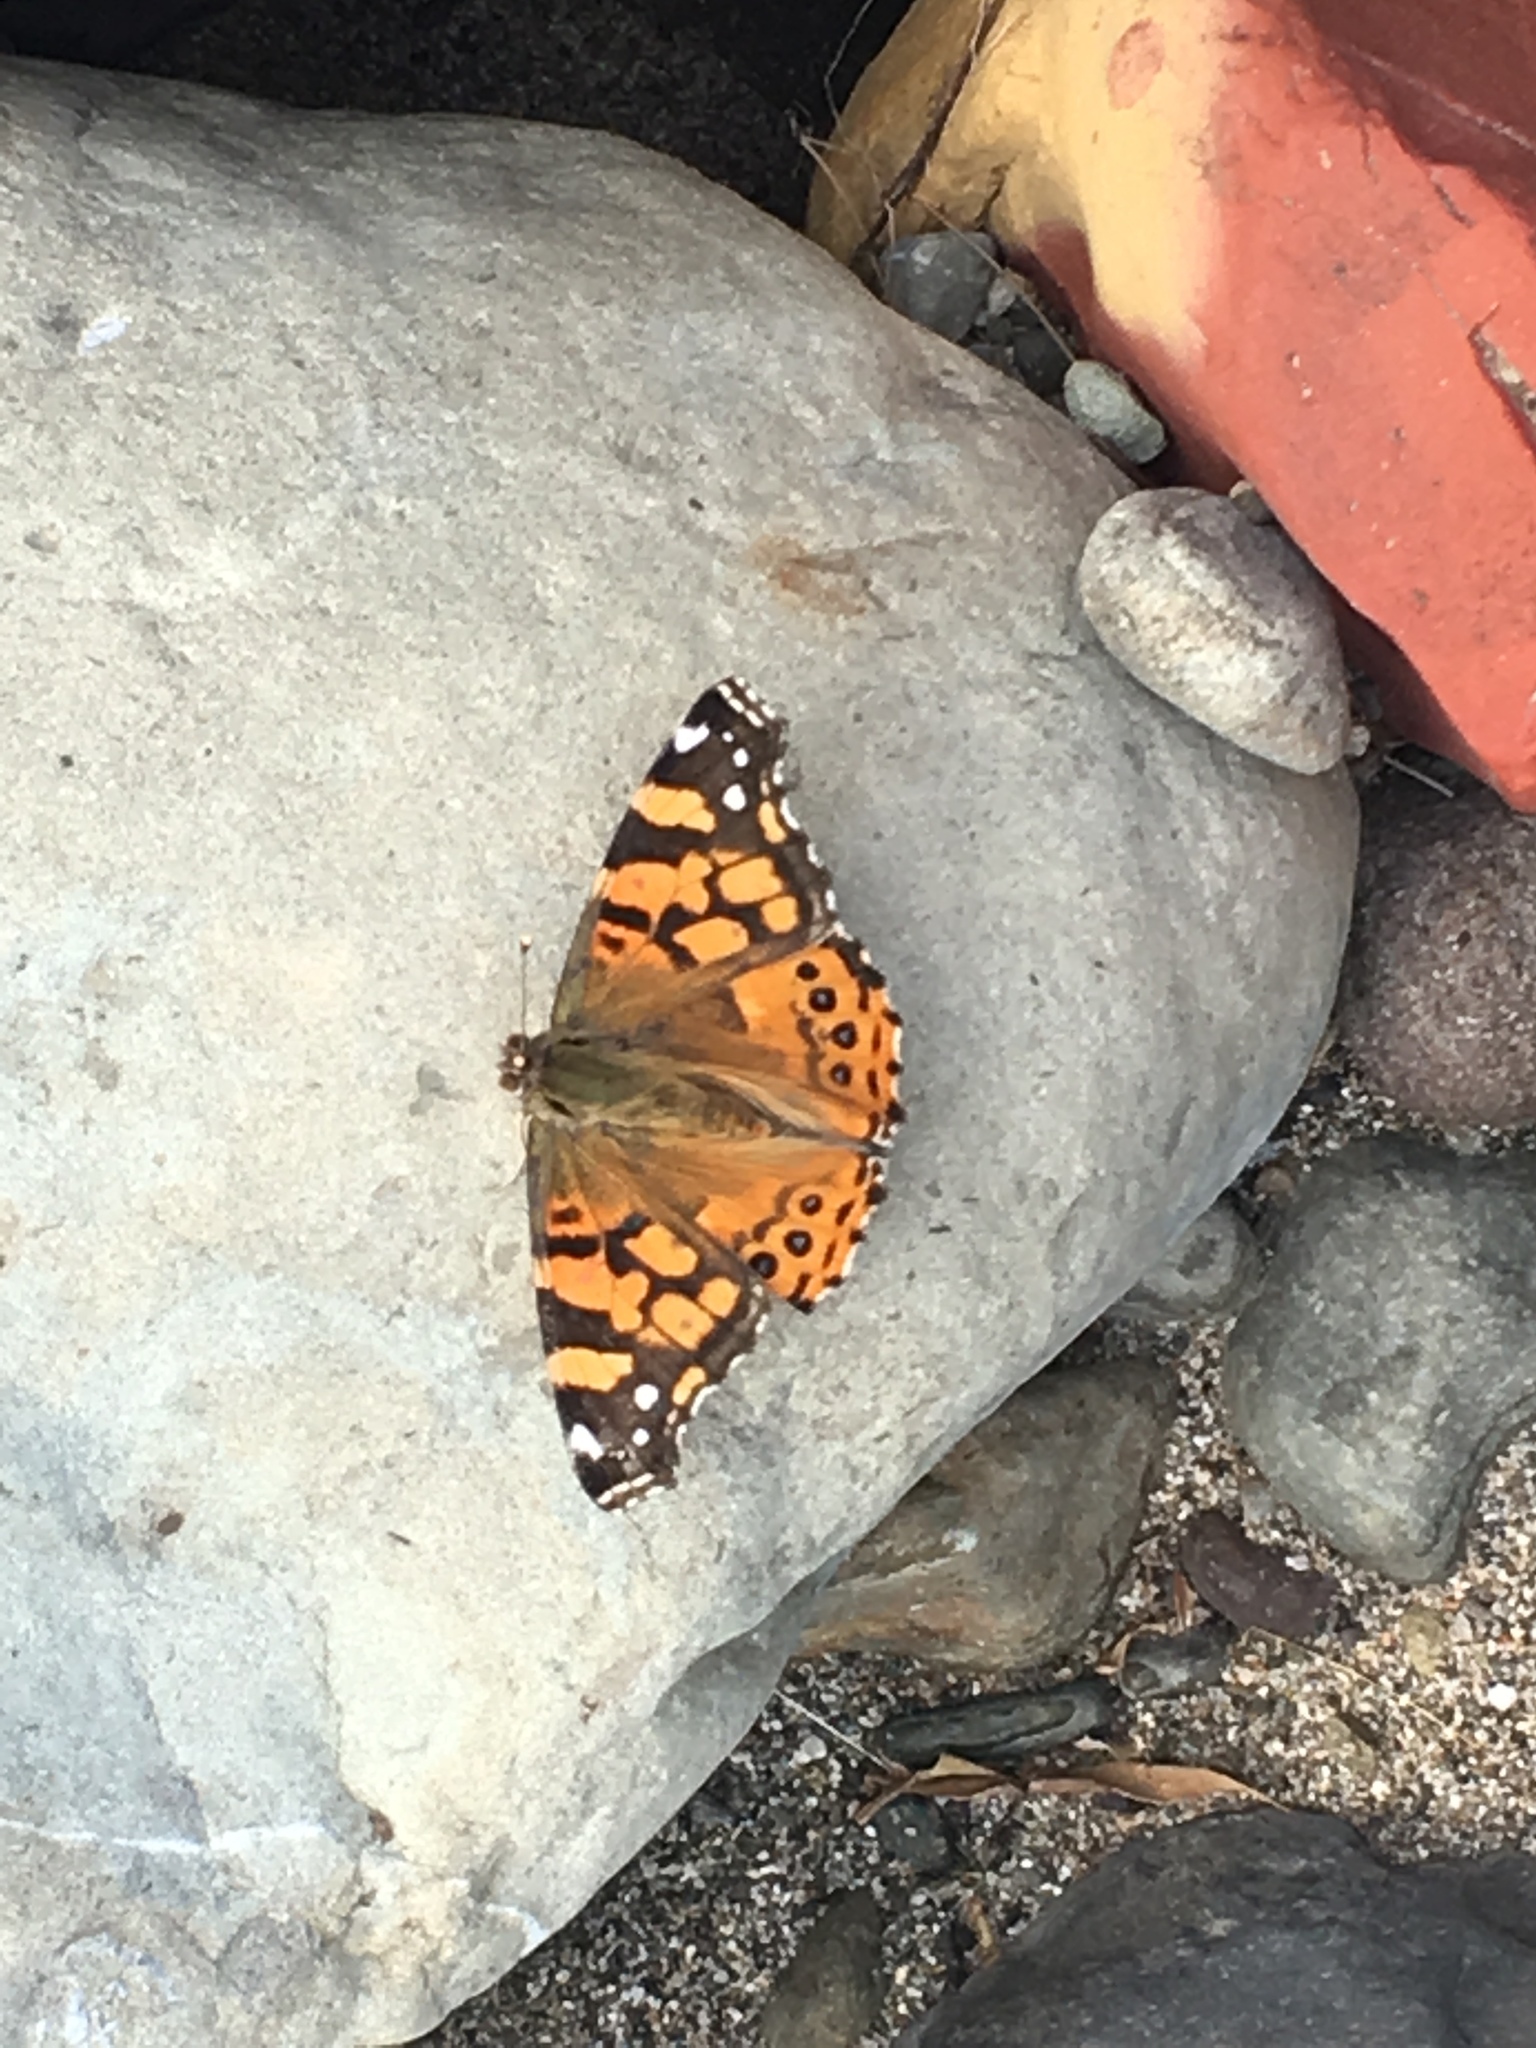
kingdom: Animalia
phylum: Arthropoda
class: Insecta
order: Lepidoptera
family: Nymphalidae
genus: Vanessa
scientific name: Vanessa annabella
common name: West coast lady
